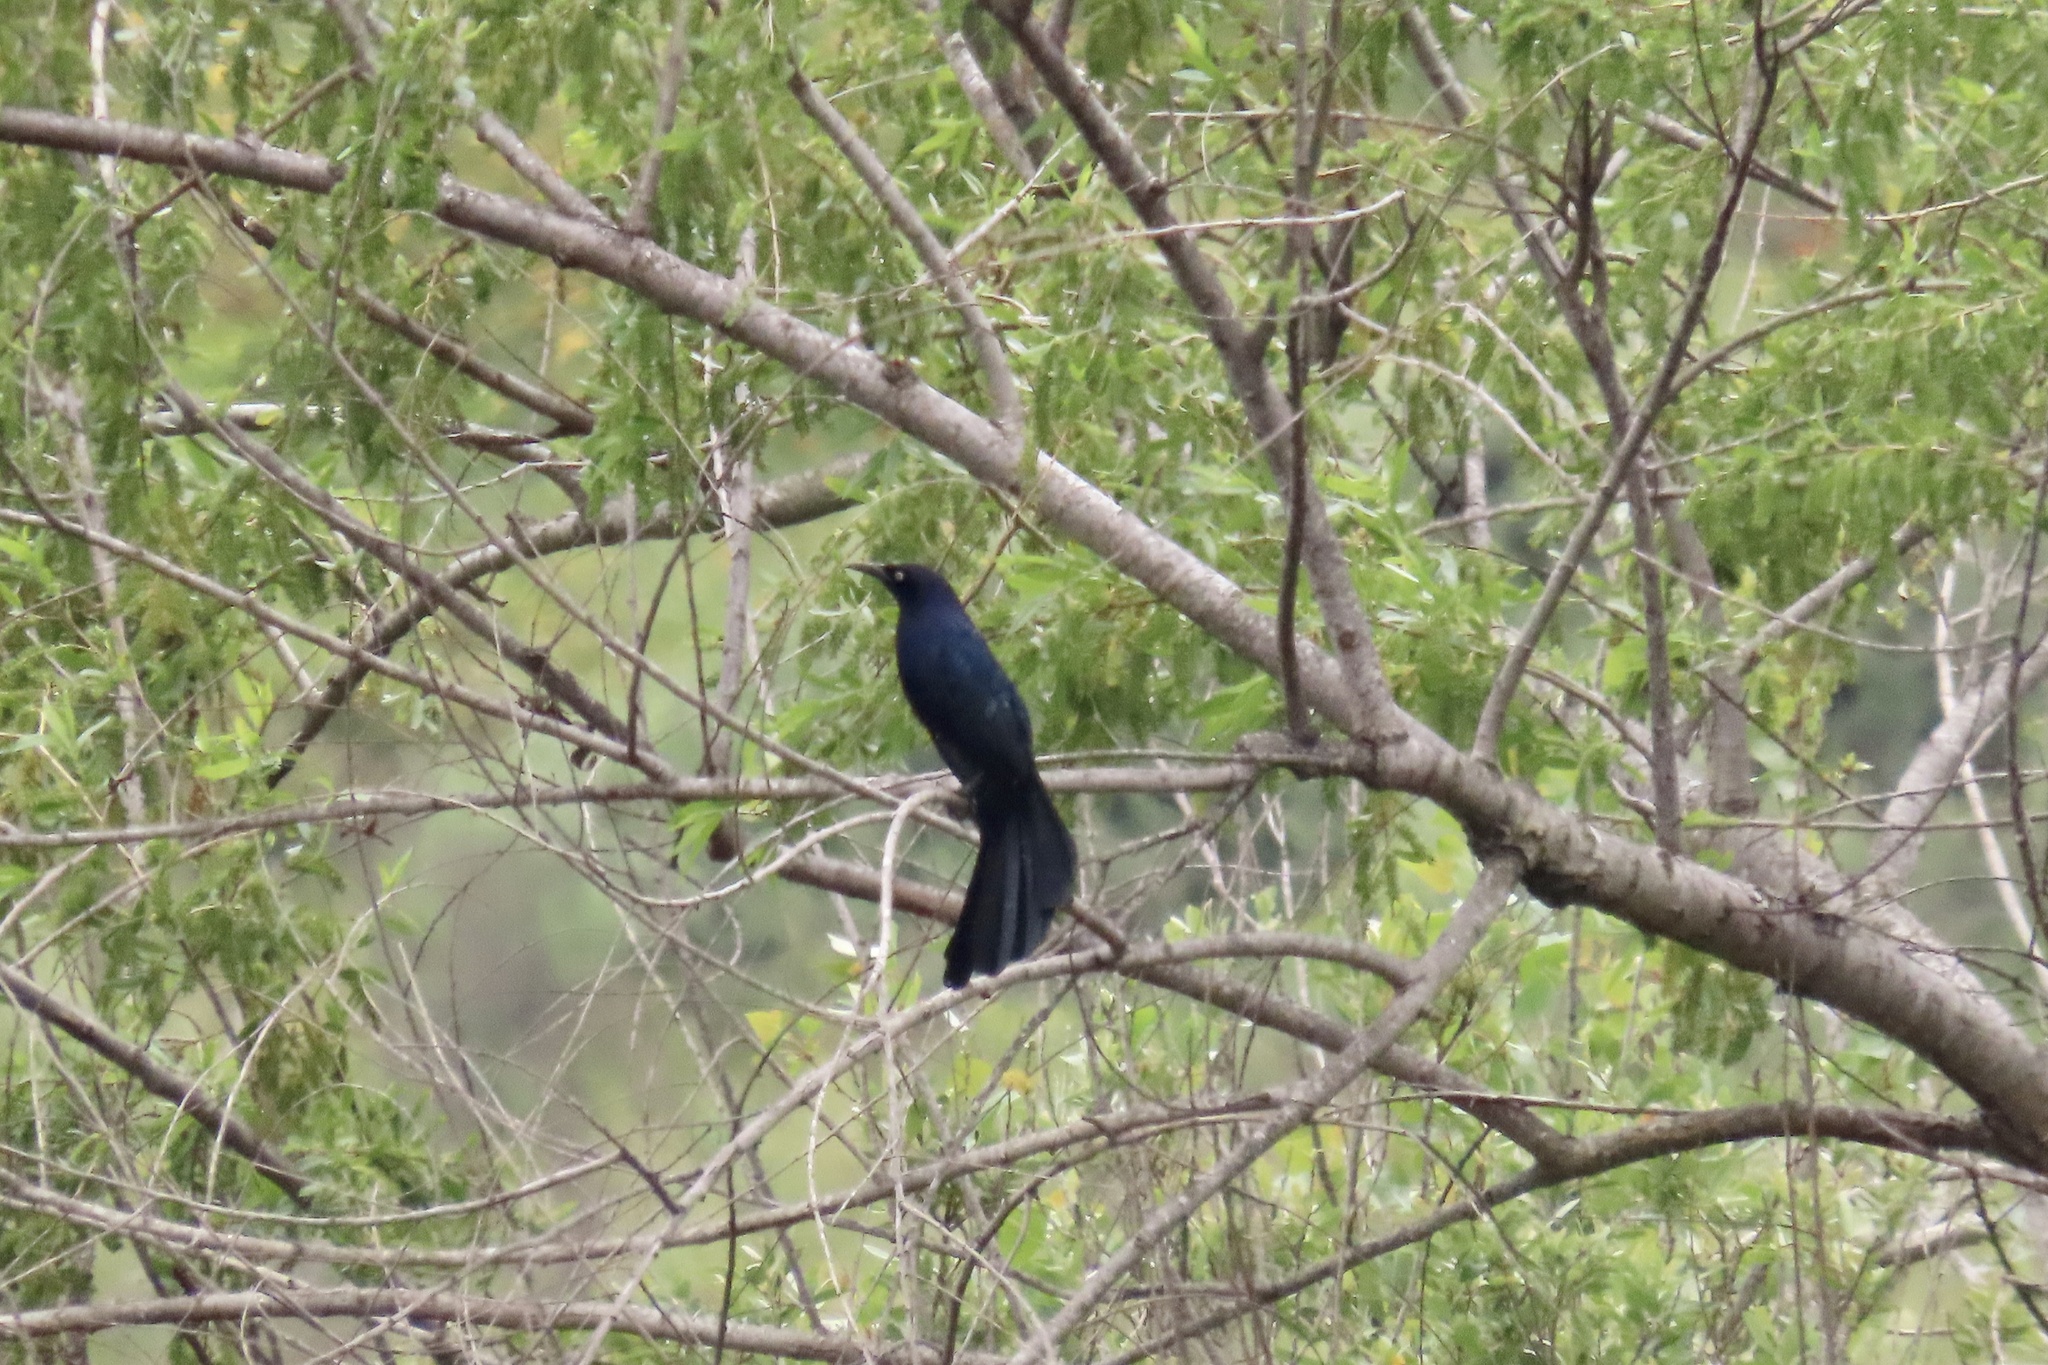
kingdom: Animalia
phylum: Chordata
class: Aves
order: Passeriformes
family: Icteridae
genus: Quiscalus
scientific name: Quiscalus mexicanus
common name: Great-tailed grackle
